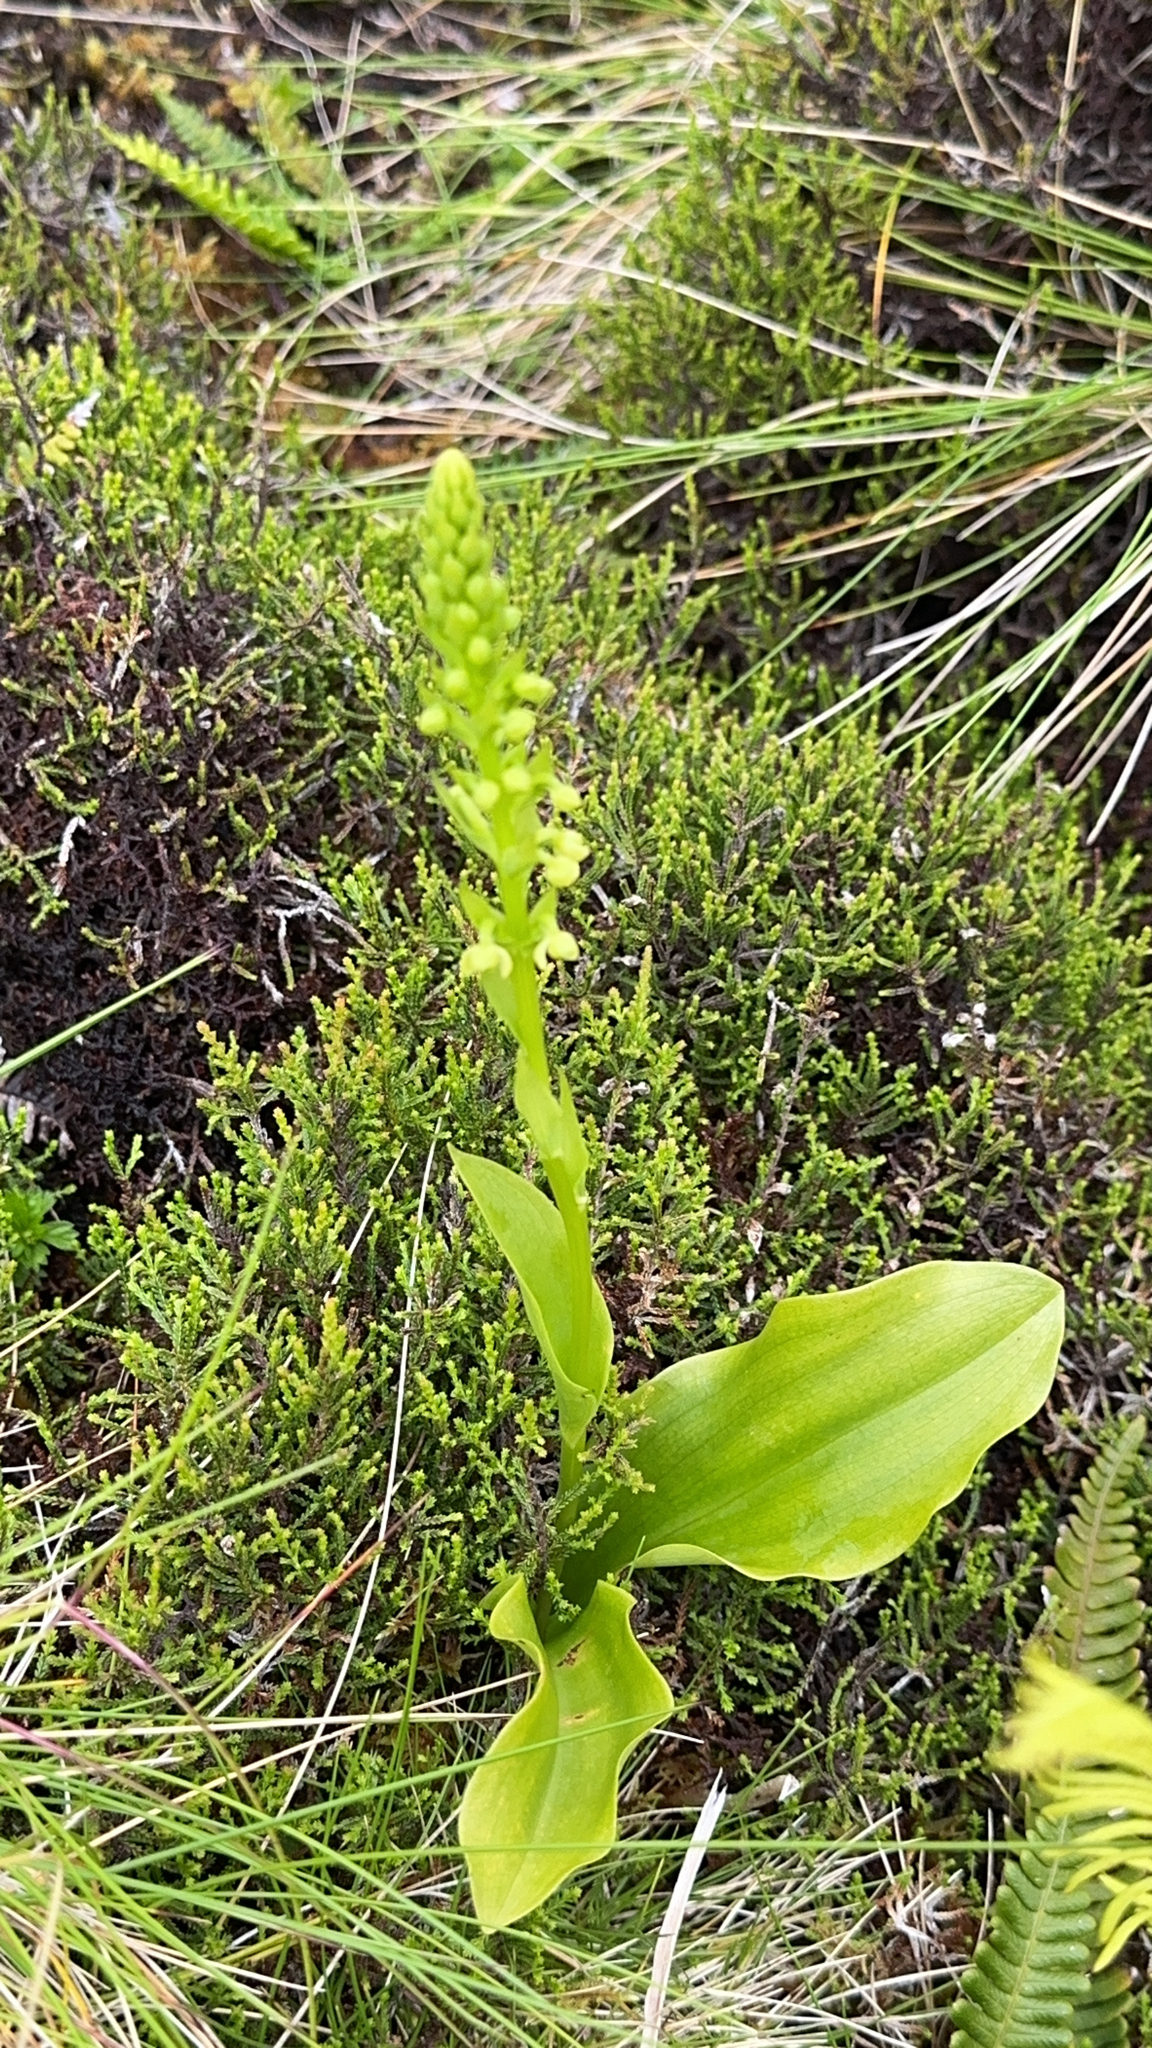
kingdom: Plantae
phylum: Tracheophyta
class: Liliopsida
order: Asparagales
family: Orchidaceae
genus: Platanthera
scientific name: Platanthera pollostantha
